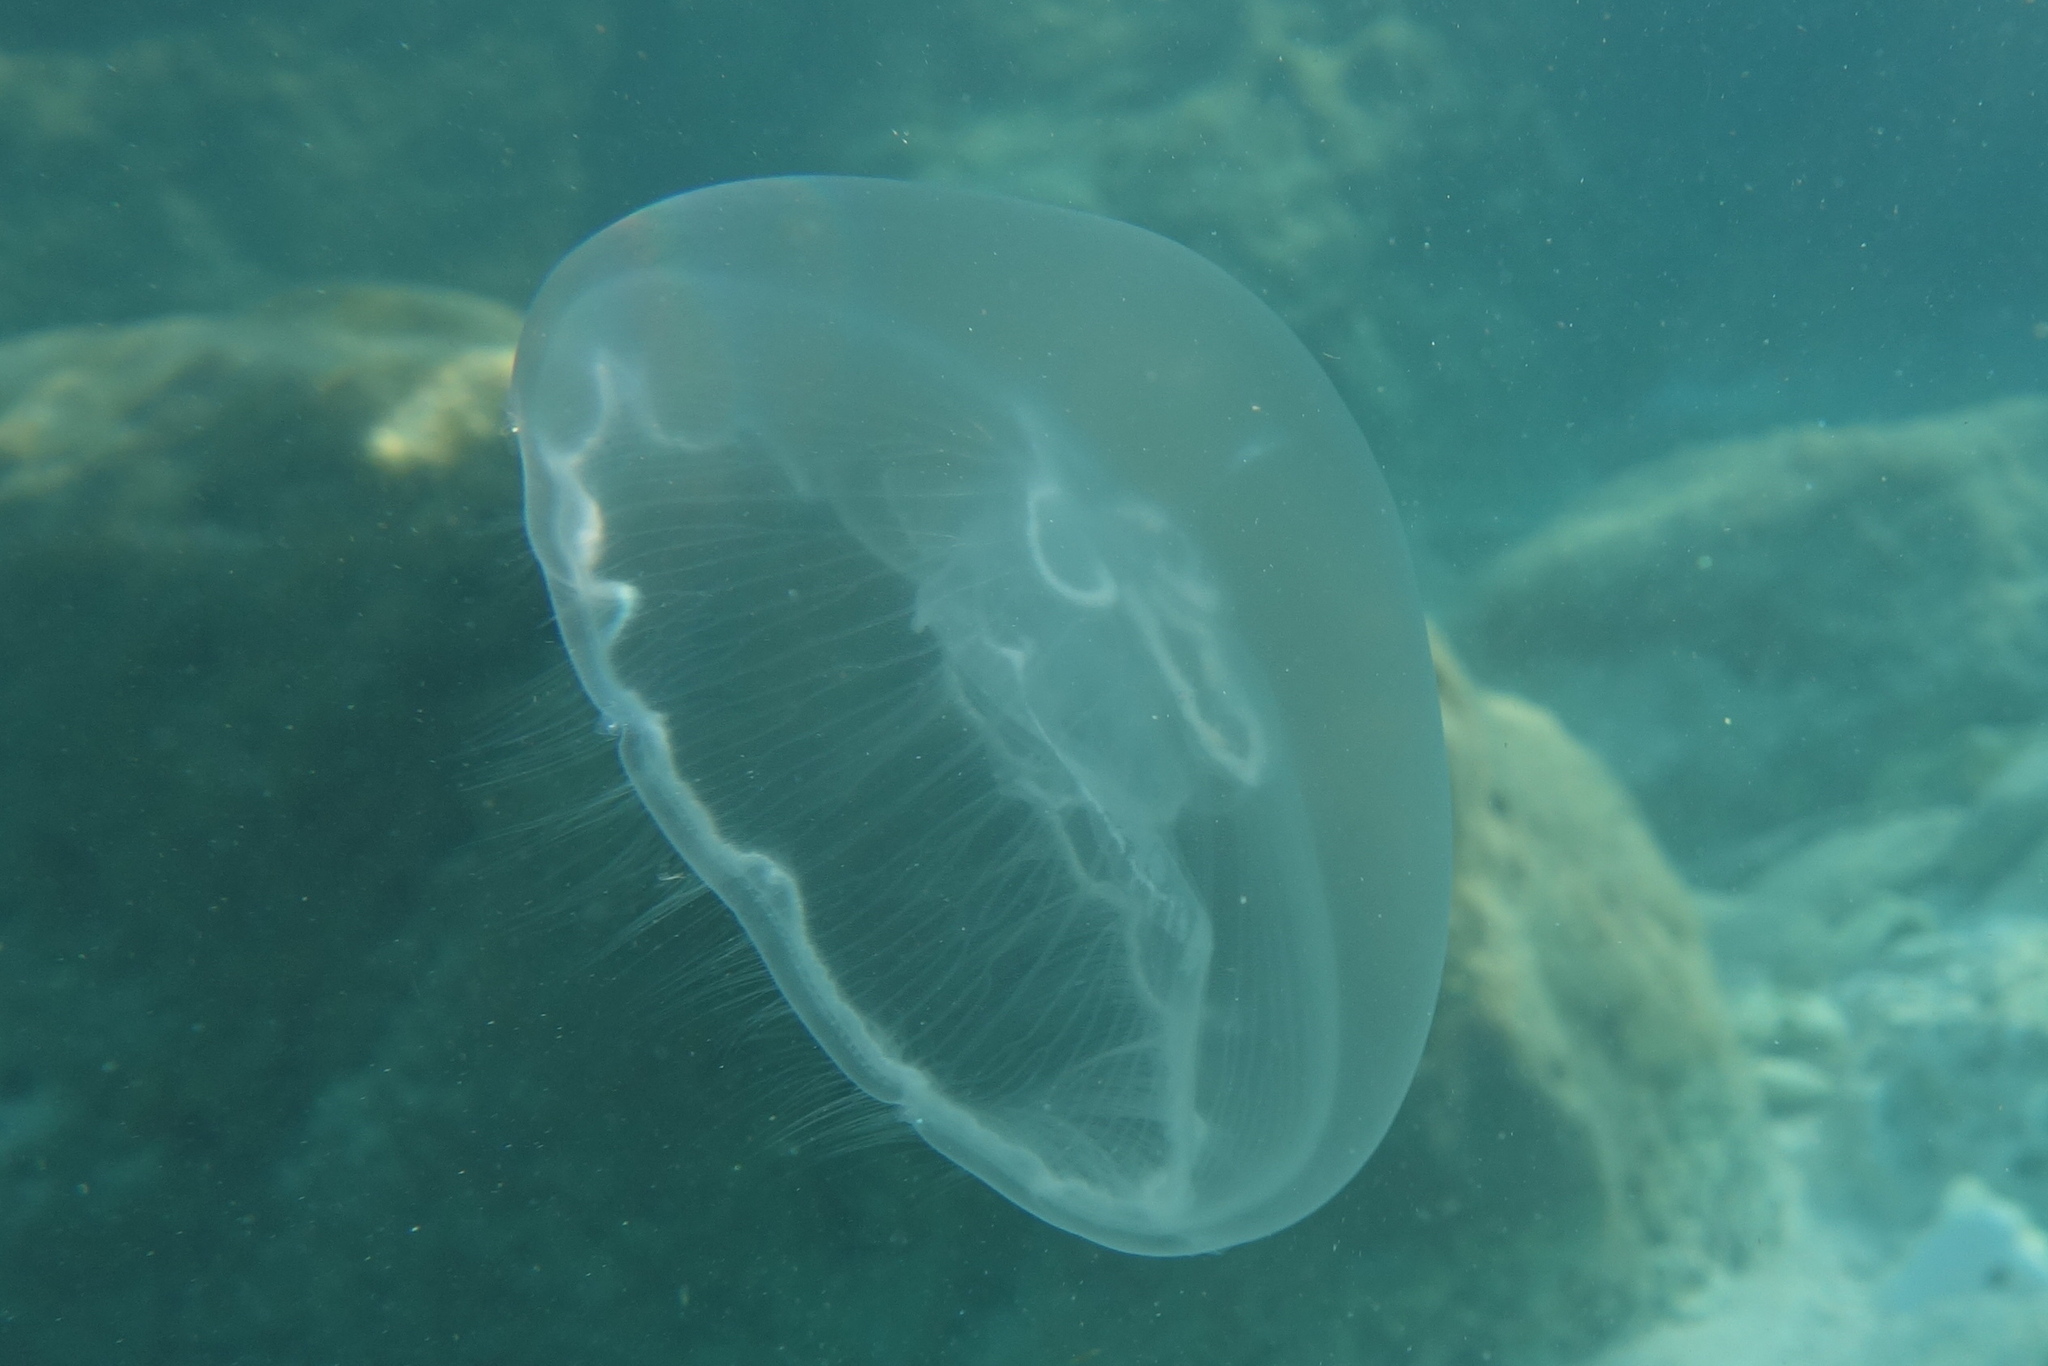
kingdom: Animalia
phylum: Cnidaria
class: Scyphozoa
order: Semaeostomeae
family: Ulmaridae
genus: Aurelia
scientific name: Aurelia marginalis
